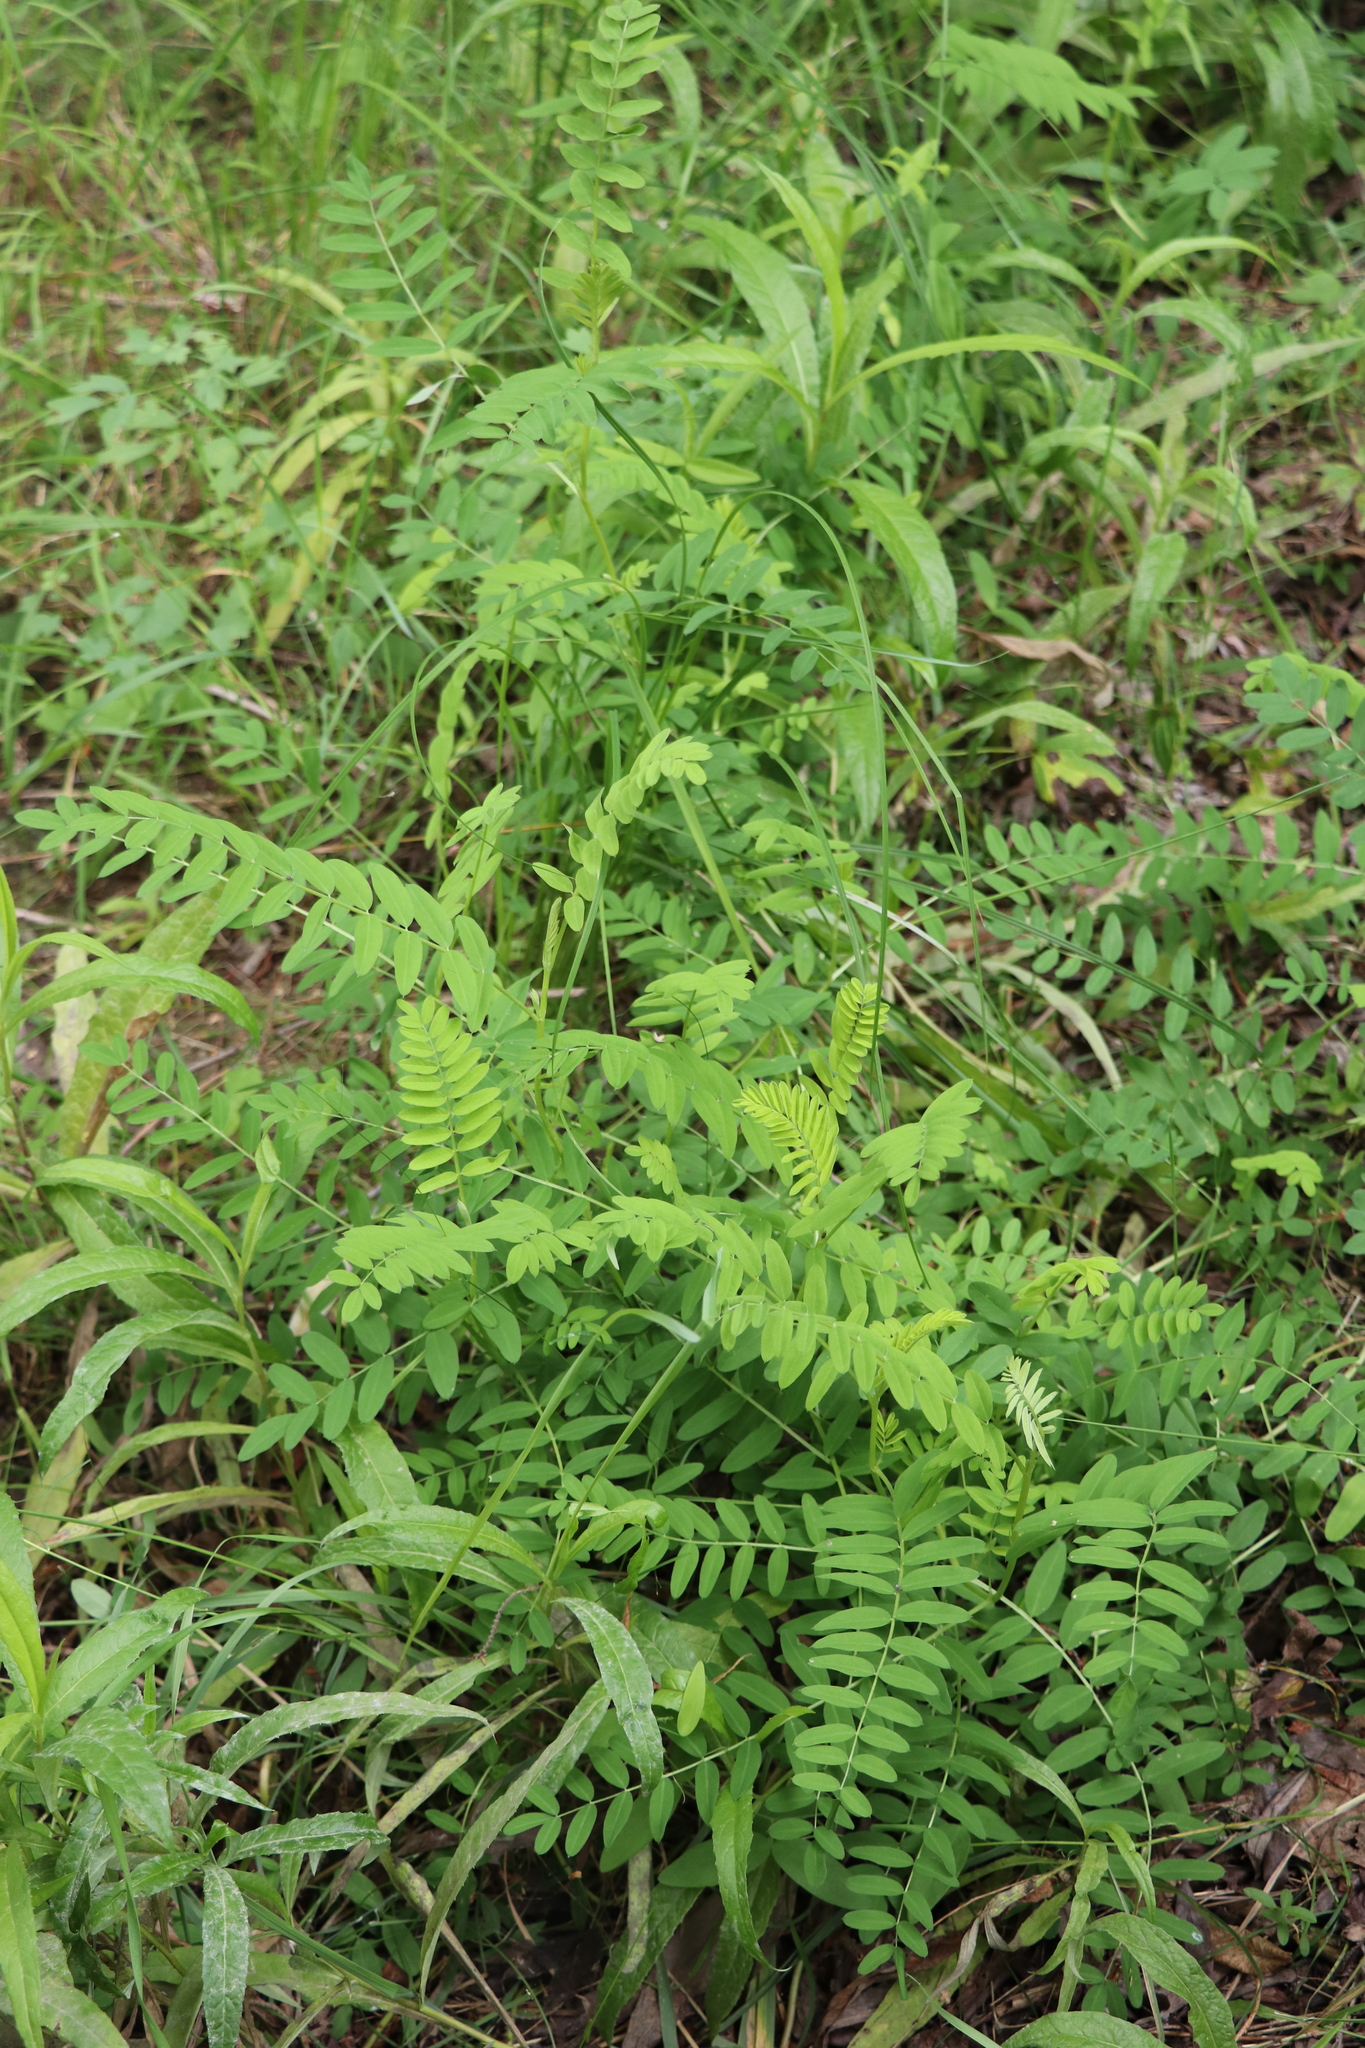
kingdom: Plantae
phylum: Tracheophyta
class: Magnoliopsida
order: Fabales
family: Fabaceae
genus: Astragalus
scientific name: Astragalus uliginosus
